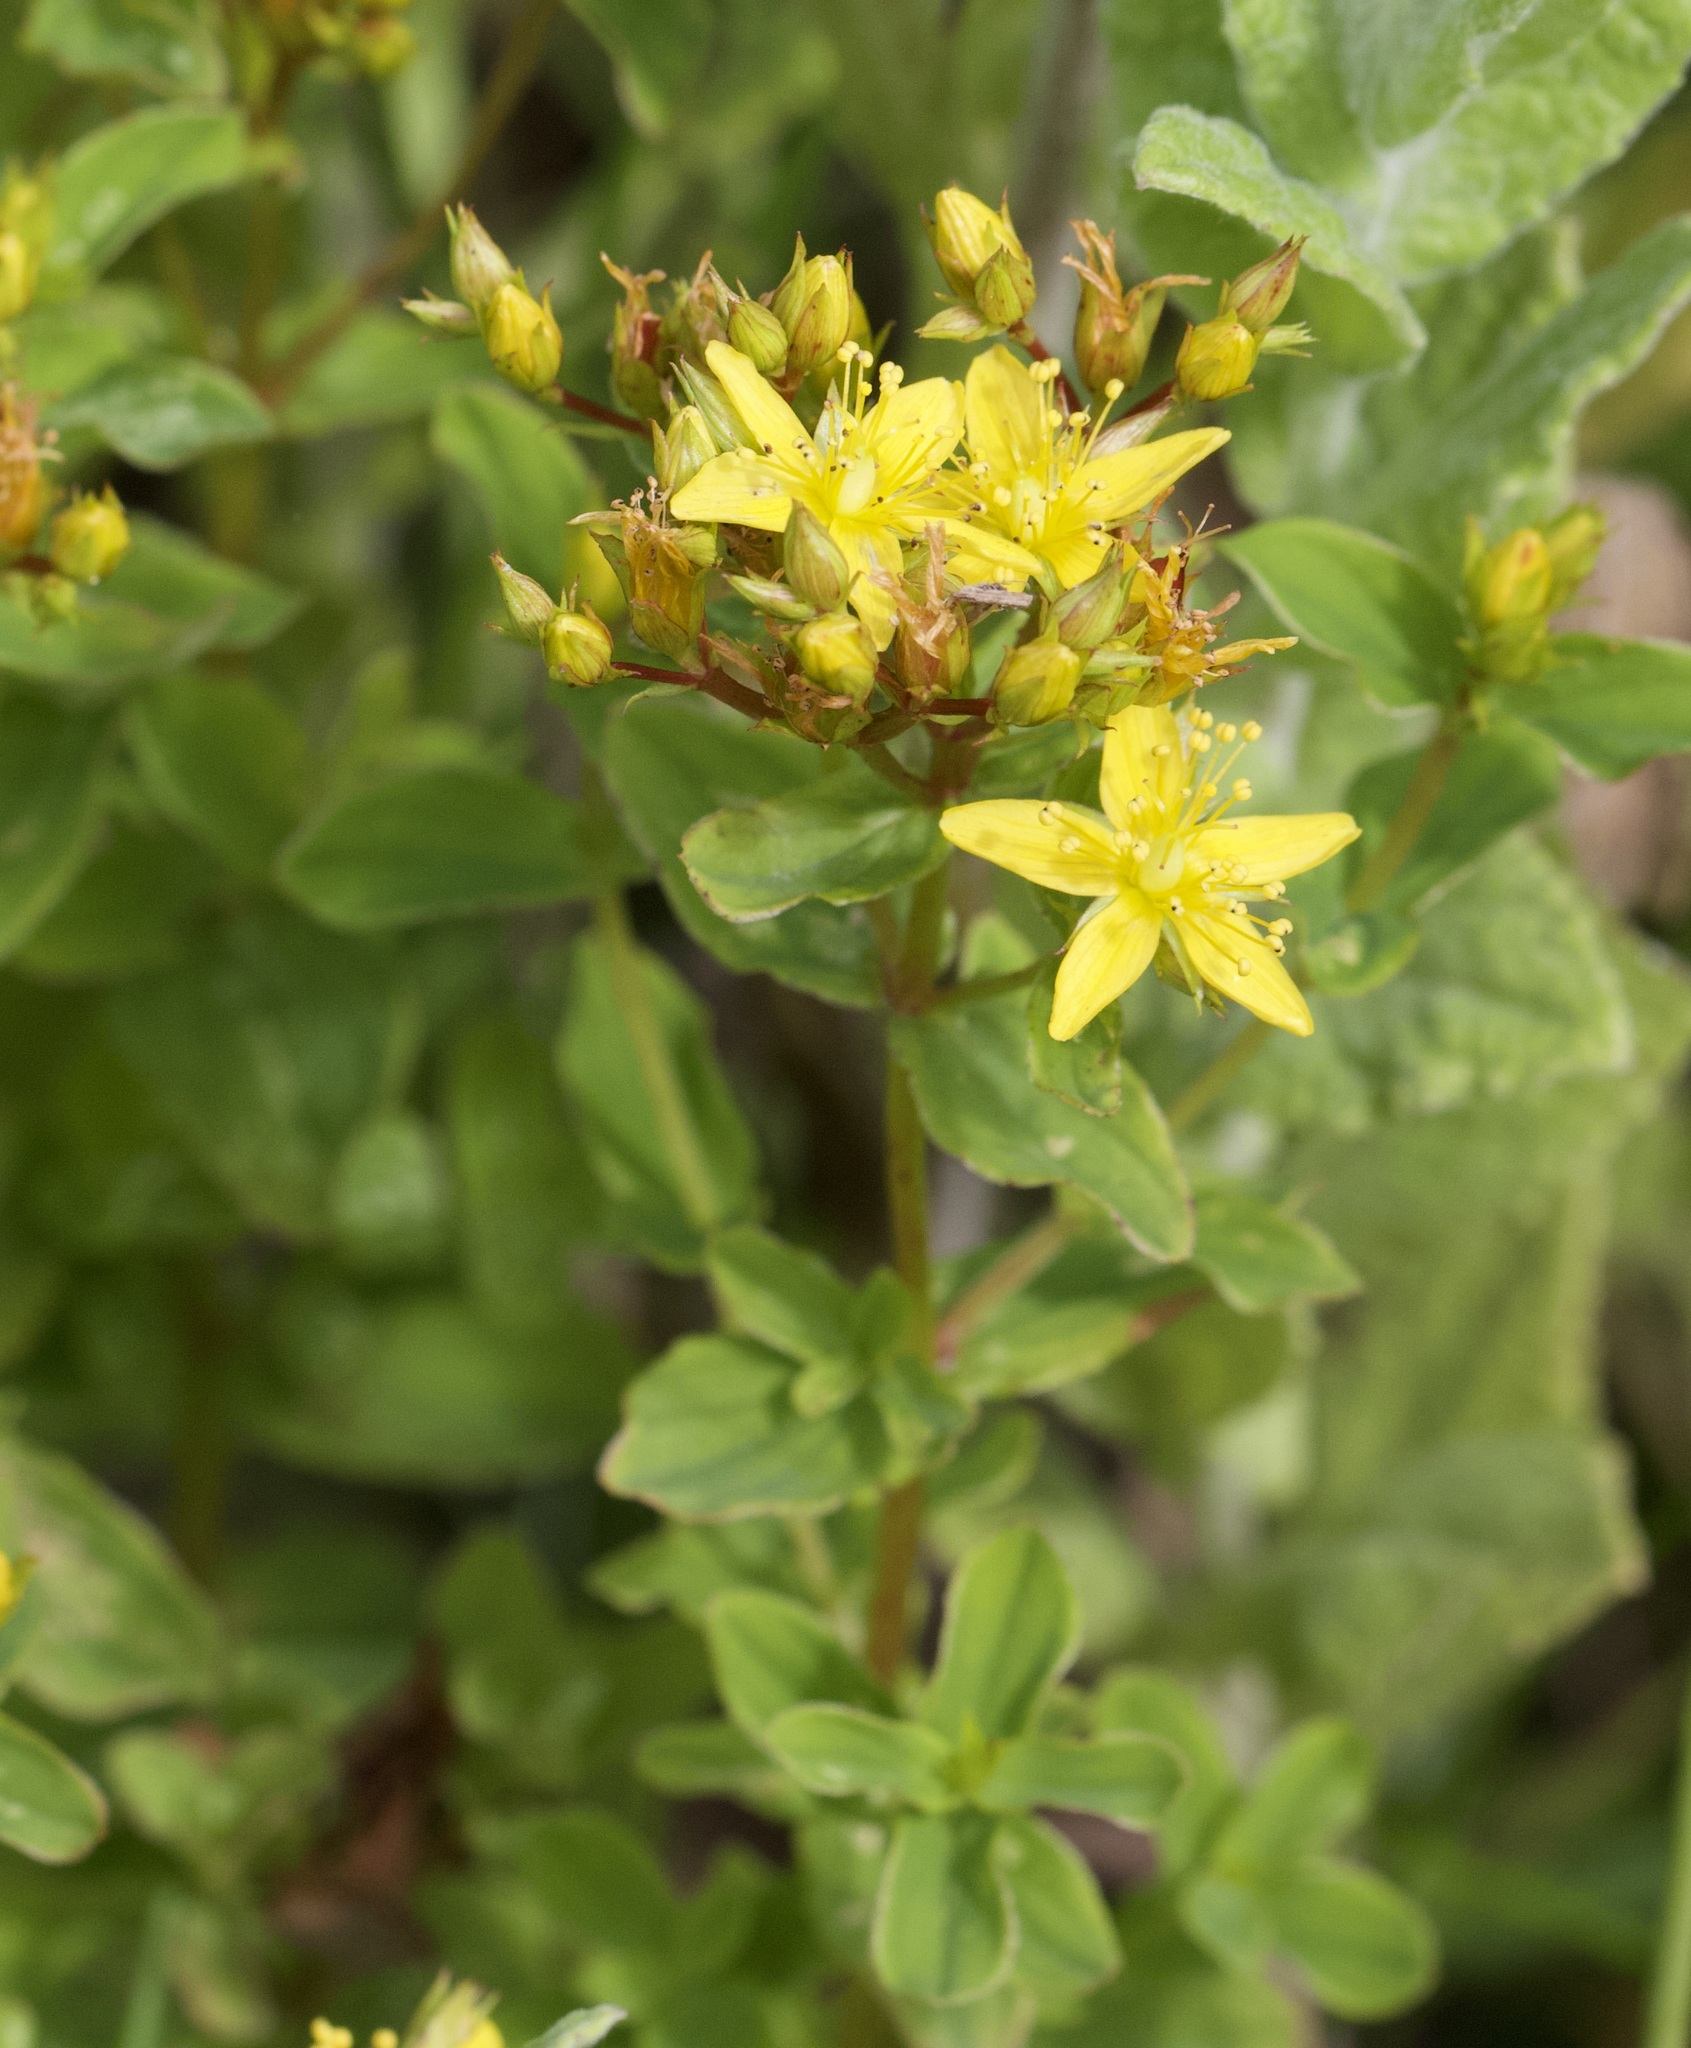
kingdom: Plantae
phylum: Tracheophyta
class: Magnoliopsida
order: Malpighiales
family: Hypericaceae
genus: Hypericum
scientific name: Hypericum tetrapterum
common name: Square-stalked st. john's-wort
